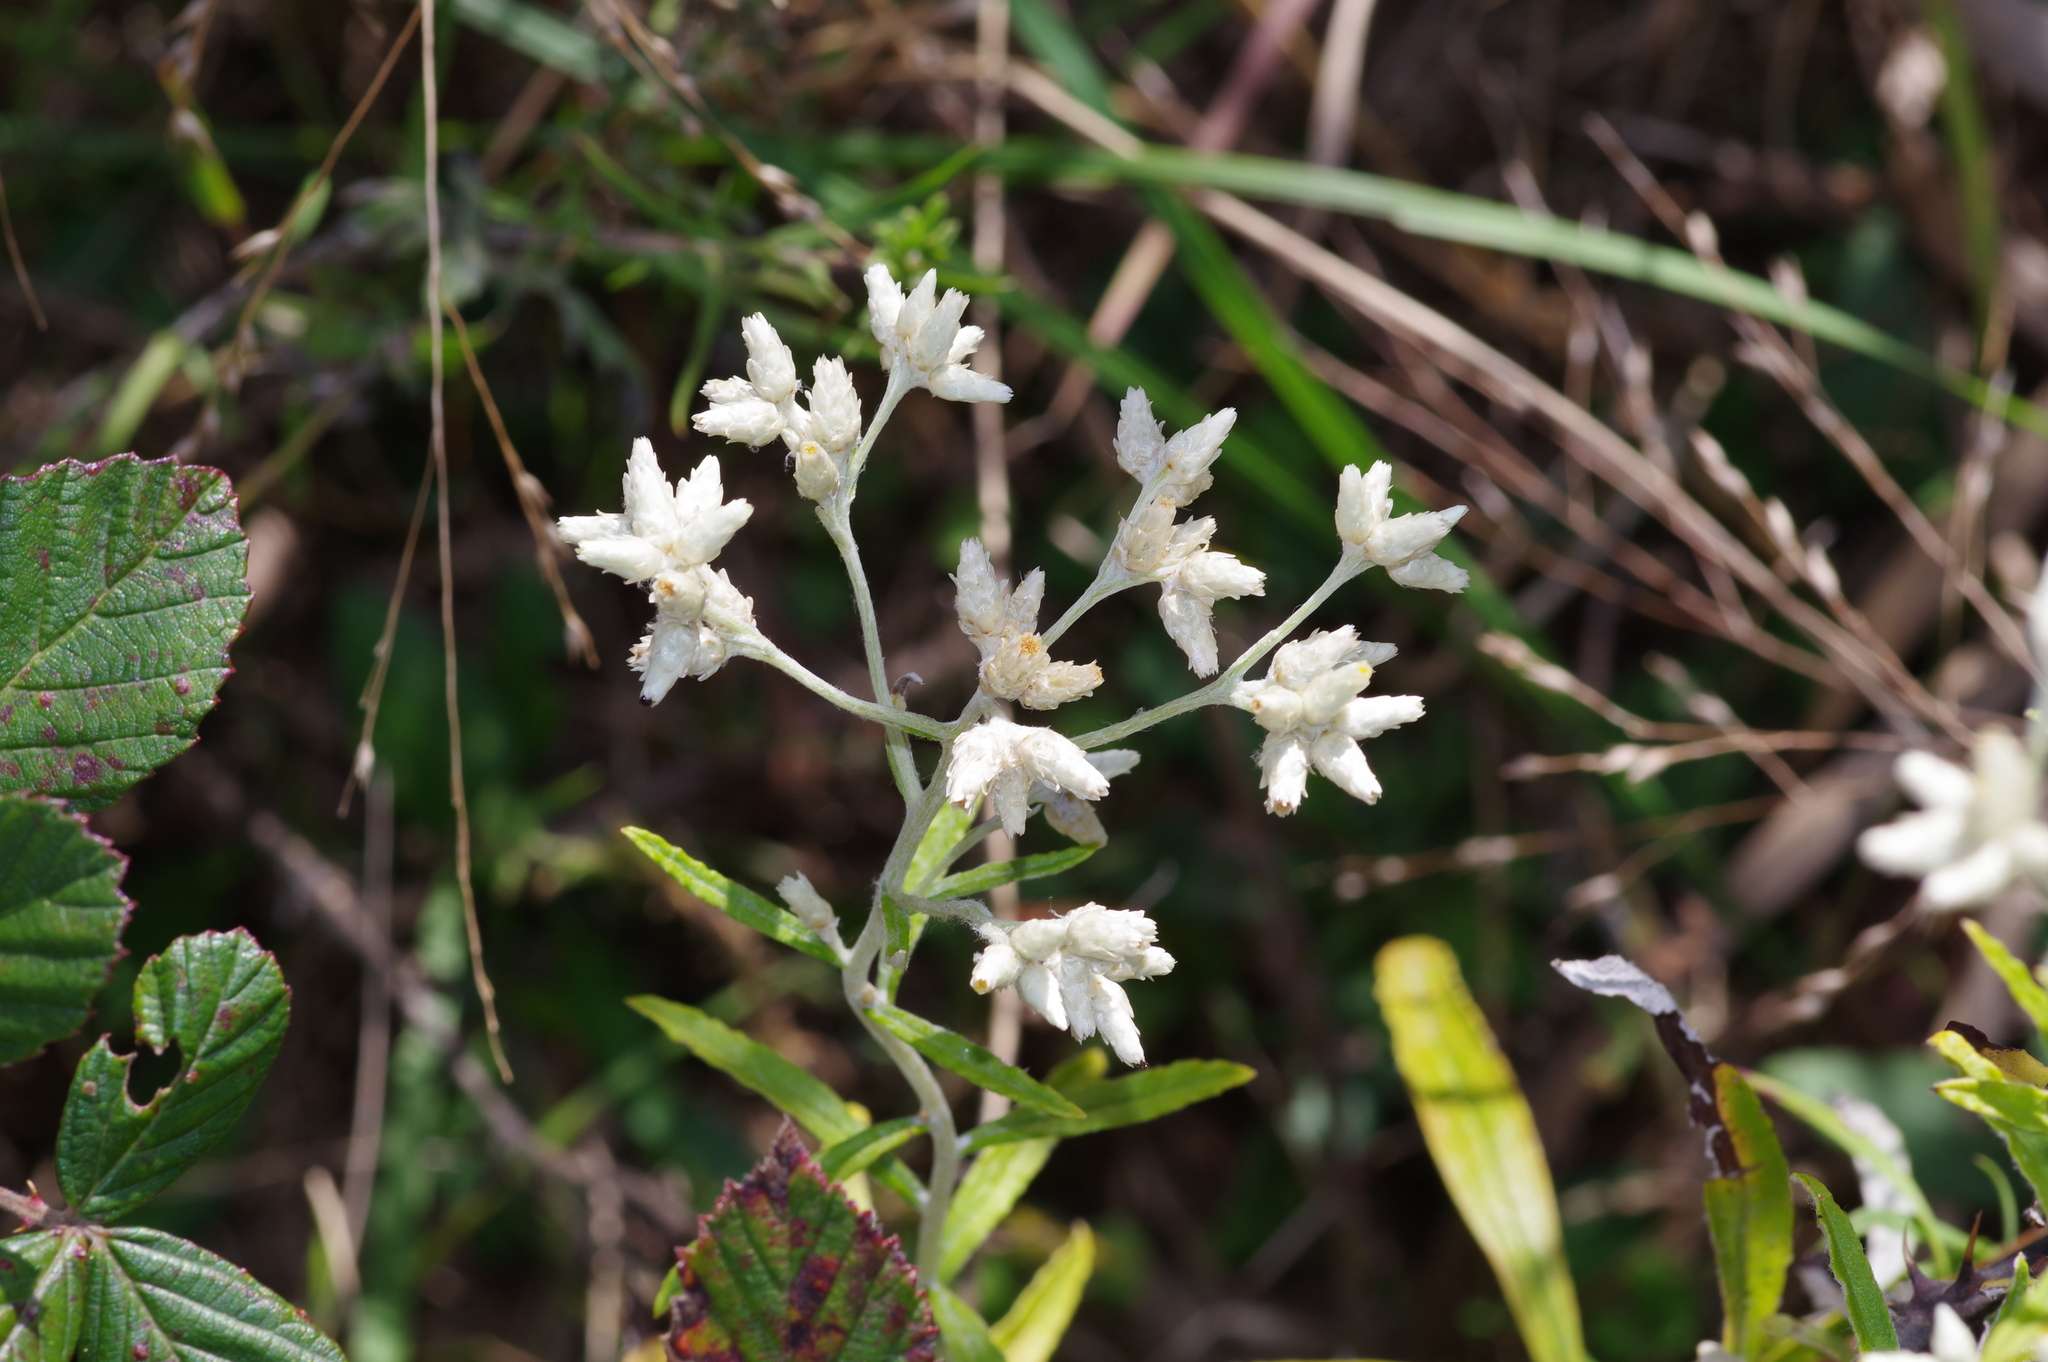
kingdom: Plantae
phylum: Tracheophyta
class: Magnoliopsida
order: Asterales
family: Asteraceae
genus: Pseudognaphalium
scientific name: Pseudognaphalium obtusifolium
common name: Eastern rabbit-tobacco
